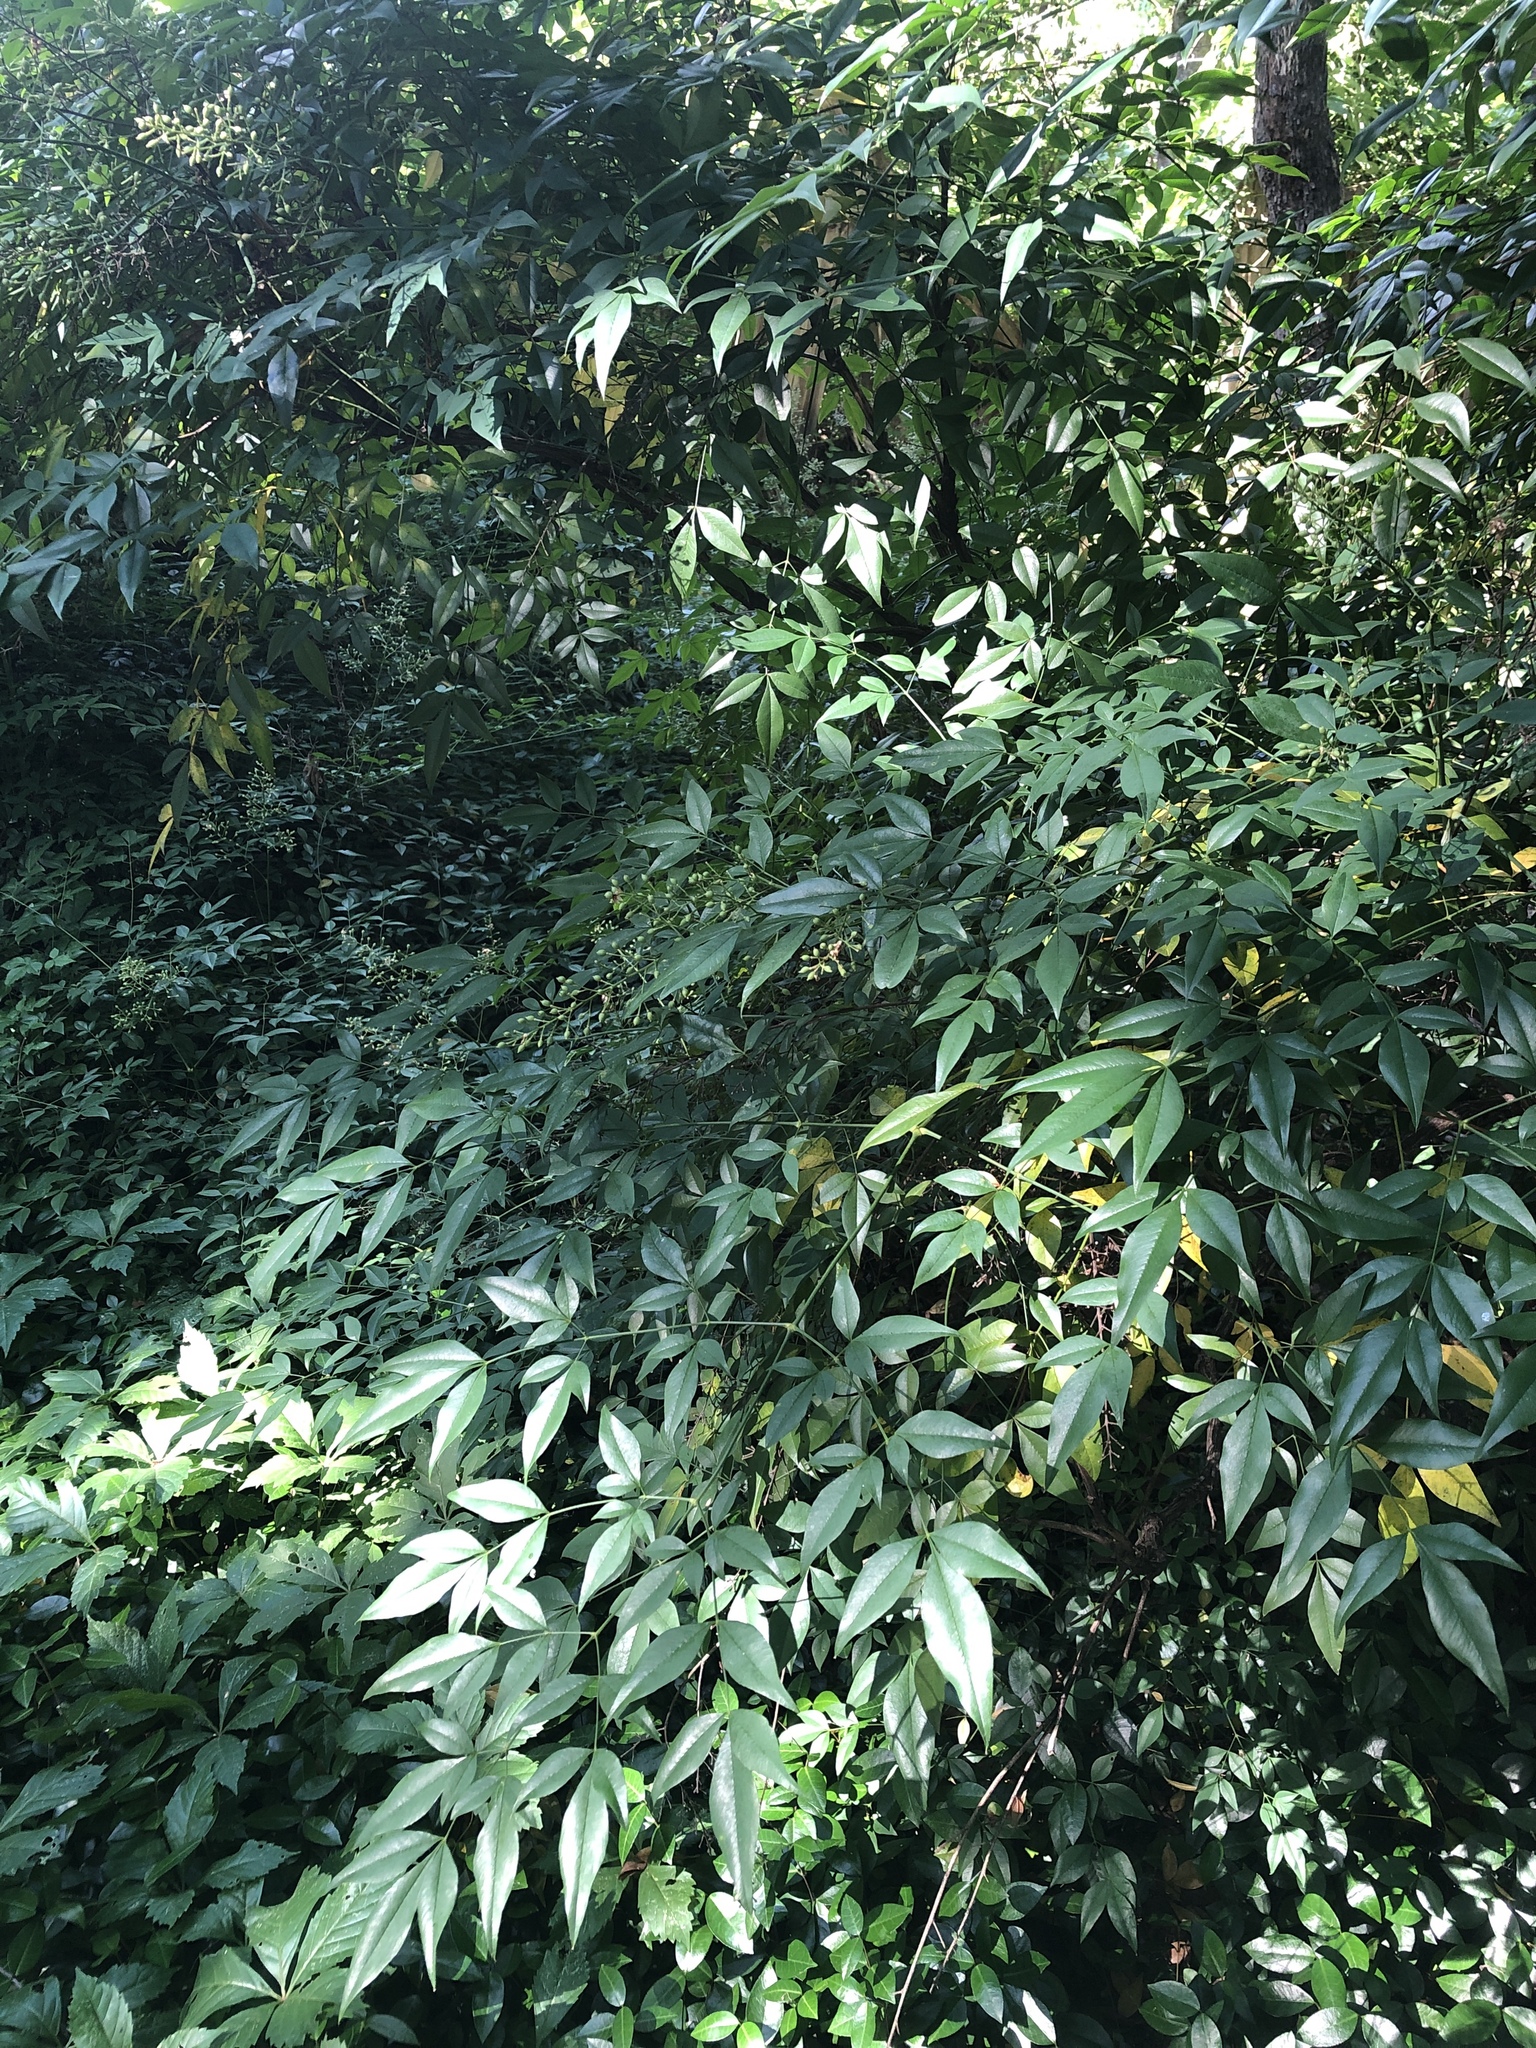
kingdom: Plantae
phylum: Tracheophyta
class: Magnoliopsida
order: Ranunculales
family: Berberidaceae
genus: Nandina
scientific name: Nandina domestica
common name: Sacred bamboo
